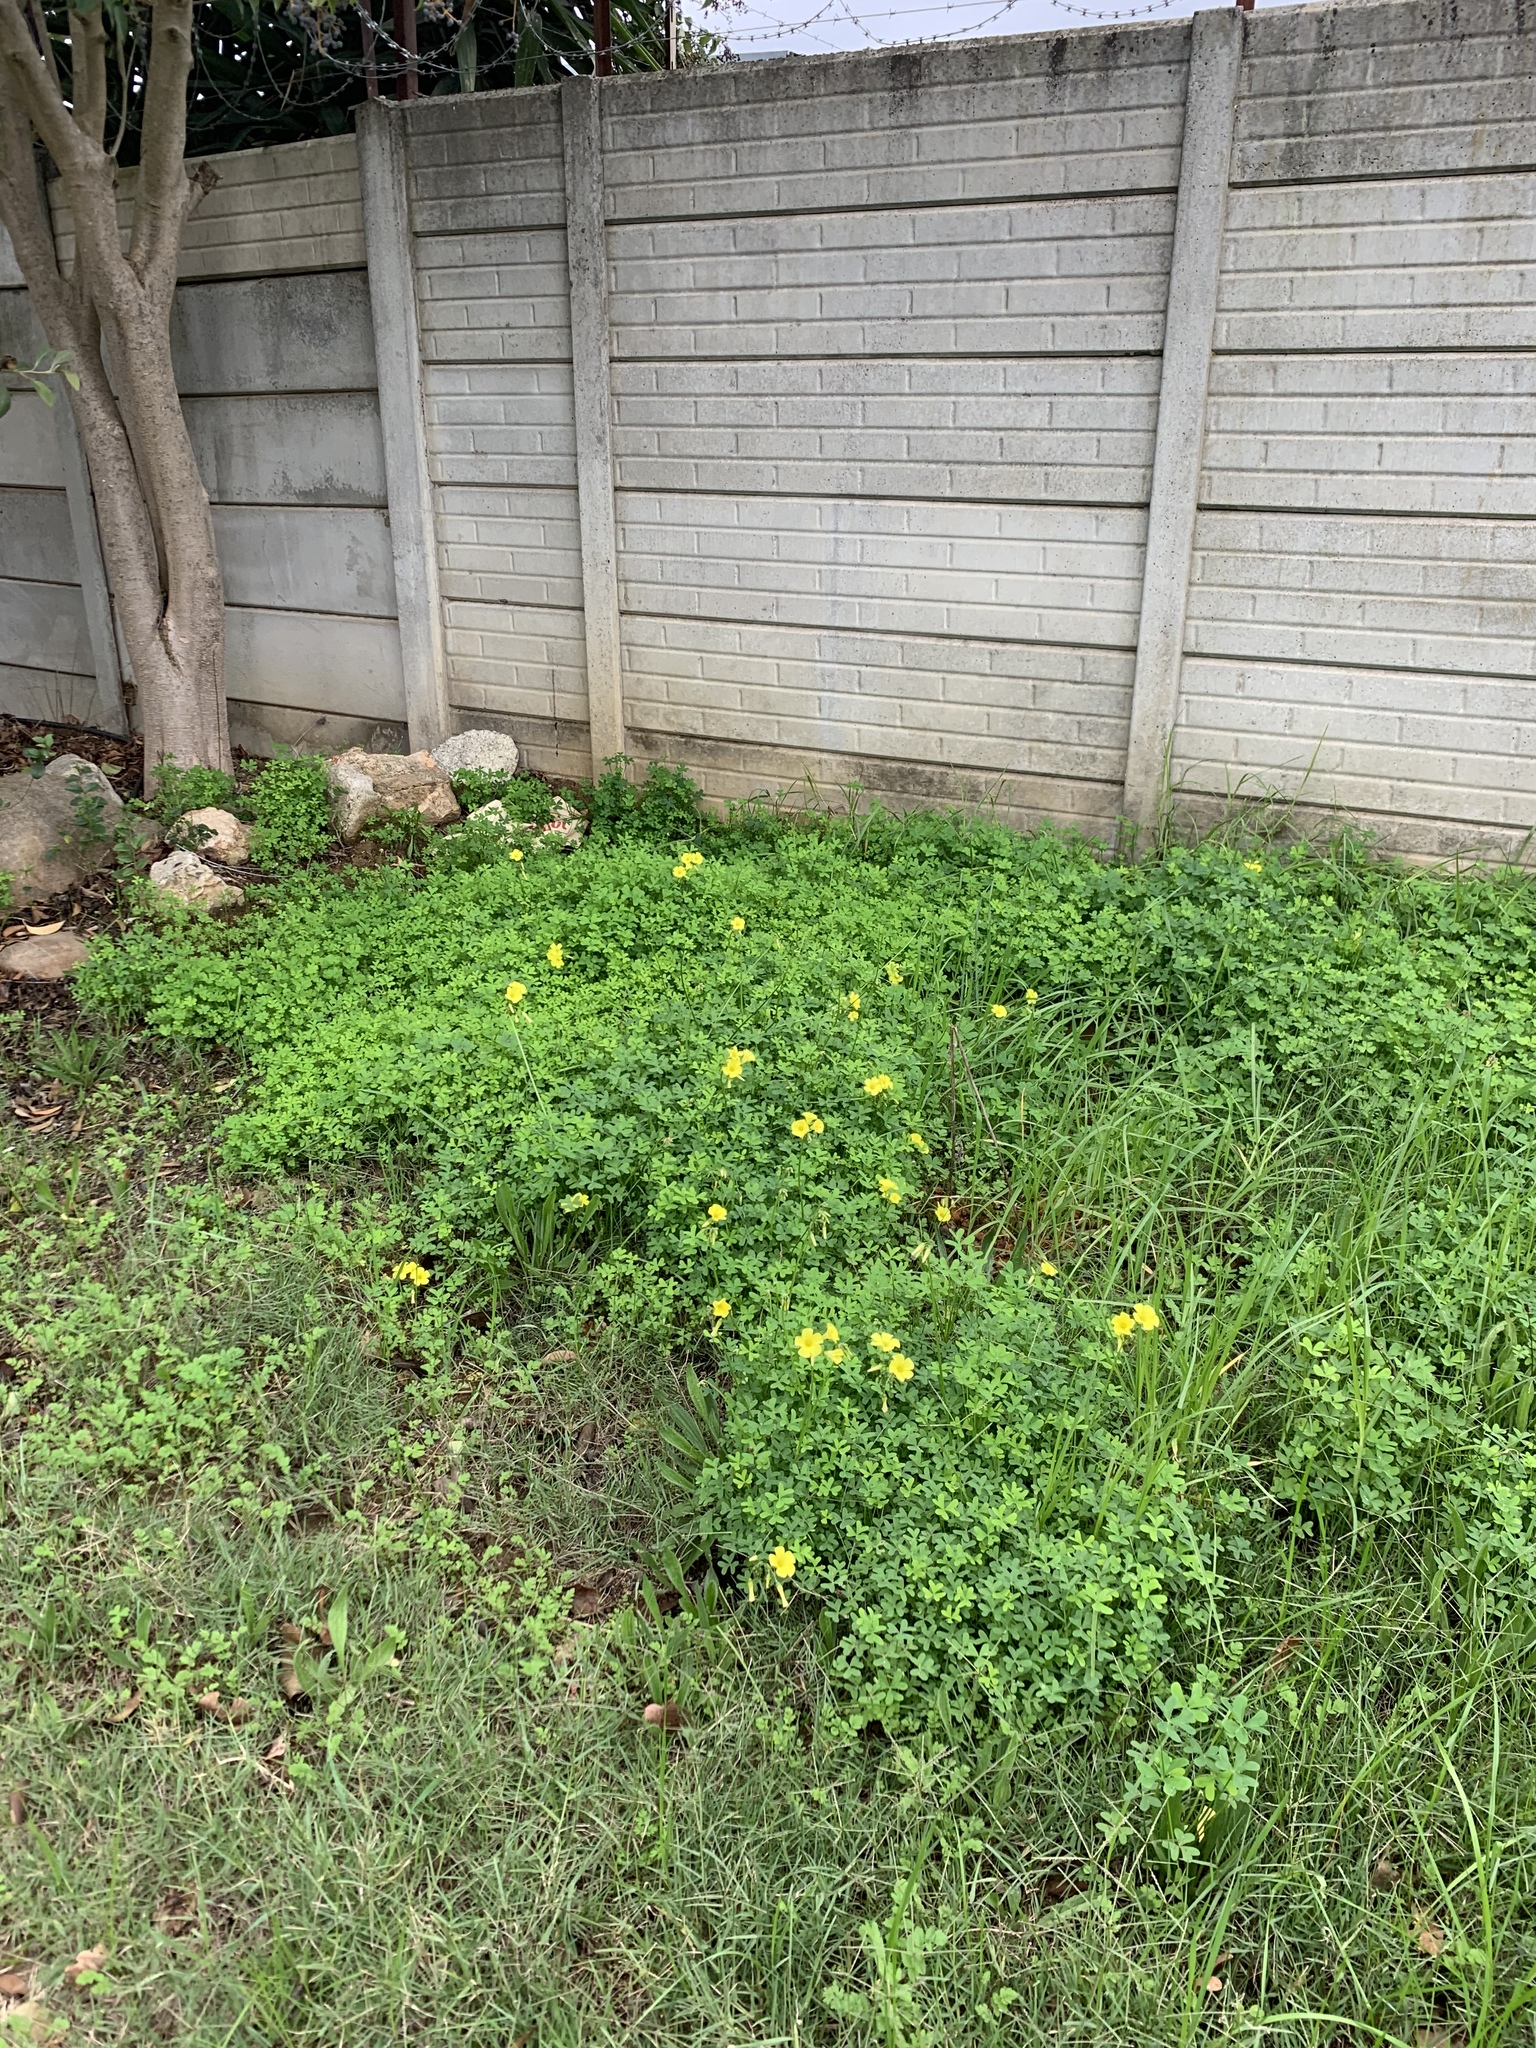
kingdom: Plantae
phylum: Tracheophyta
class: Magnoliopsida
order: Oxalidales
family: Oxalidaceae
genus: Oxalis
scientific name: Oxalis pes-caprae
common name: Bermuda-buttercup
